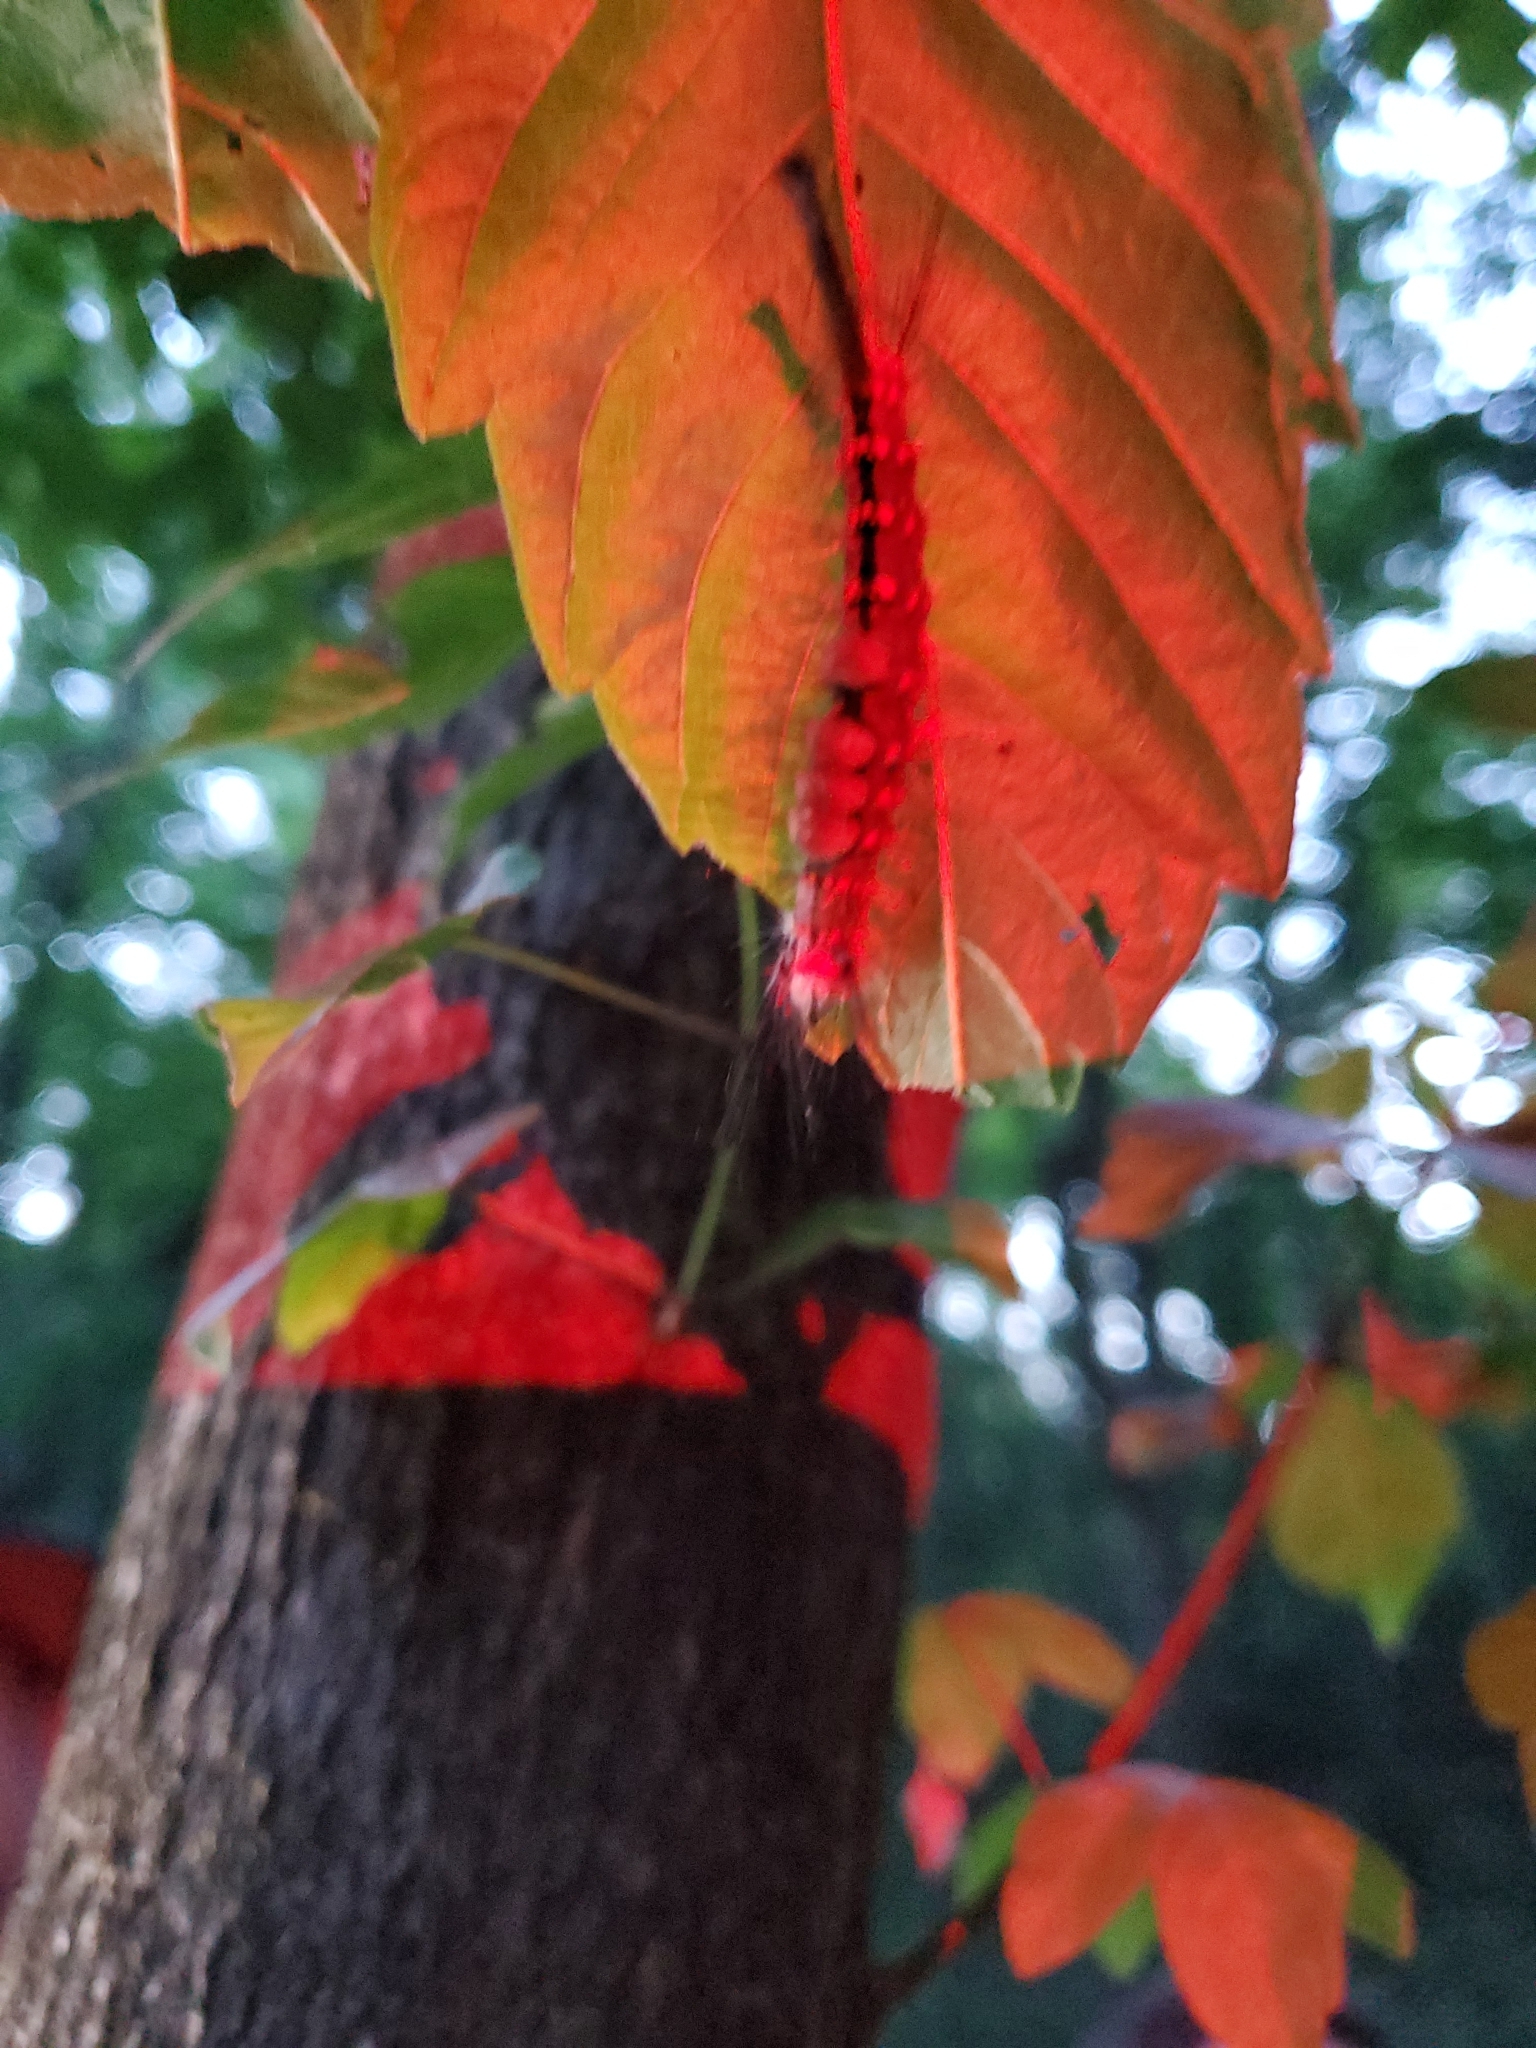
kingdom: Animalia
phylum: Arthropoda
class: Insecta
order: Lepidoptera
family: Erebidae
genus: Orgyia
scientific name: Orgyia detrita
